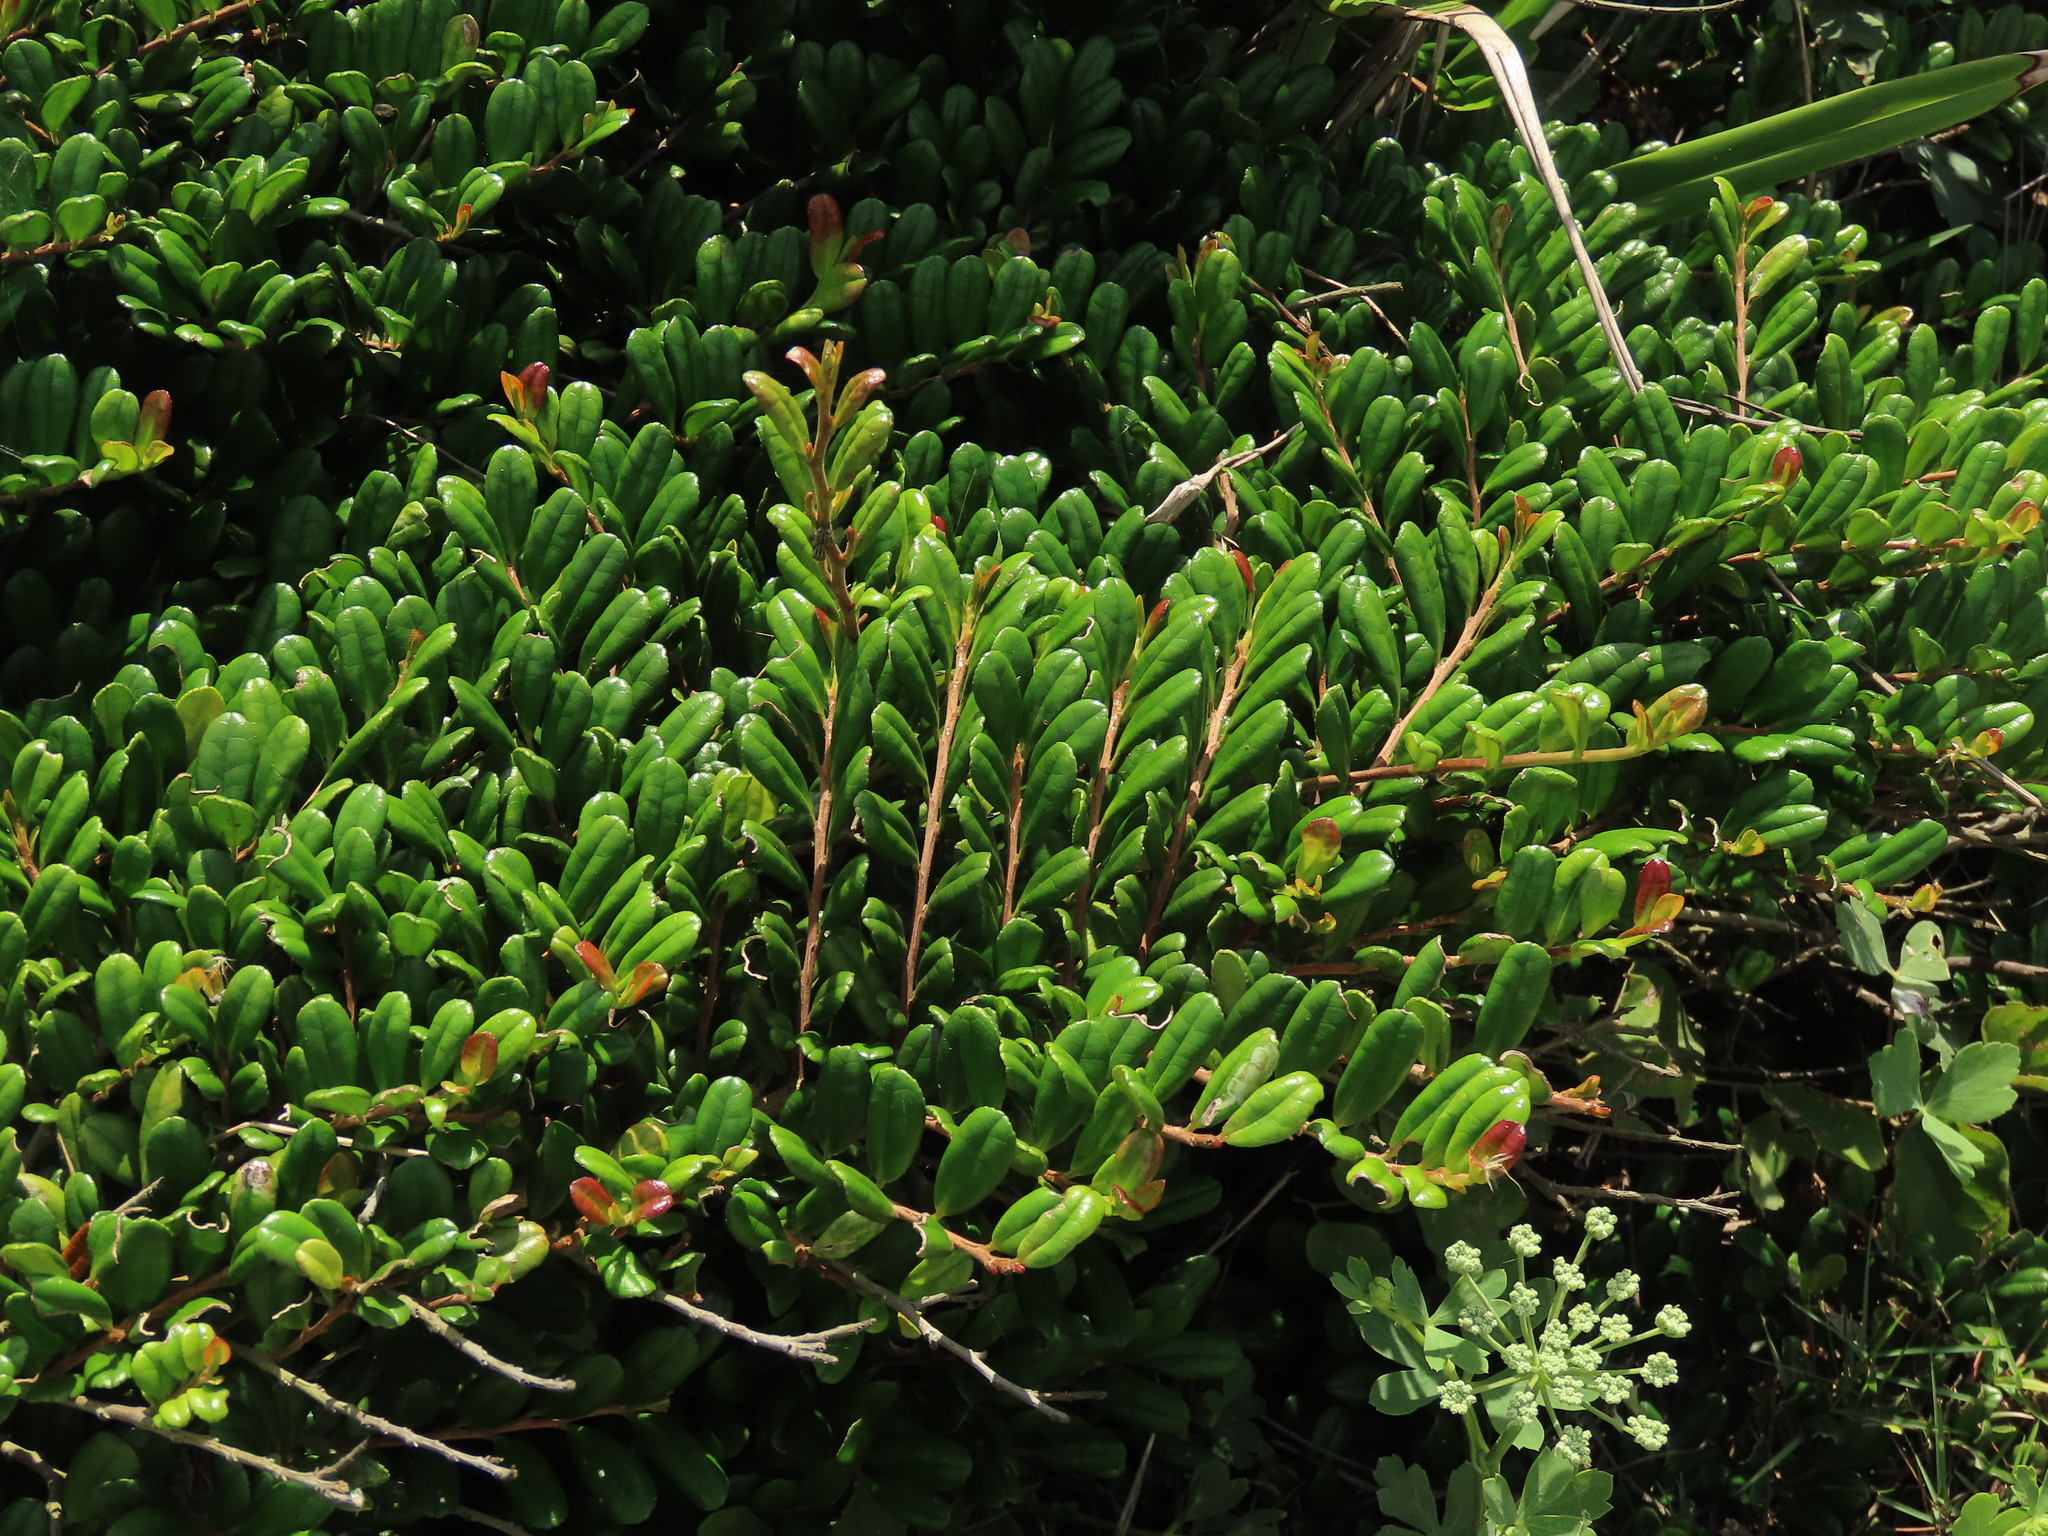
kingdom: Plantae
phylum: Tracheophyta
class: Magnoliopsida
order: Ericales
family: Pentaphylacaceae
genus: Eurya
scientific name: Eurya emarginata
